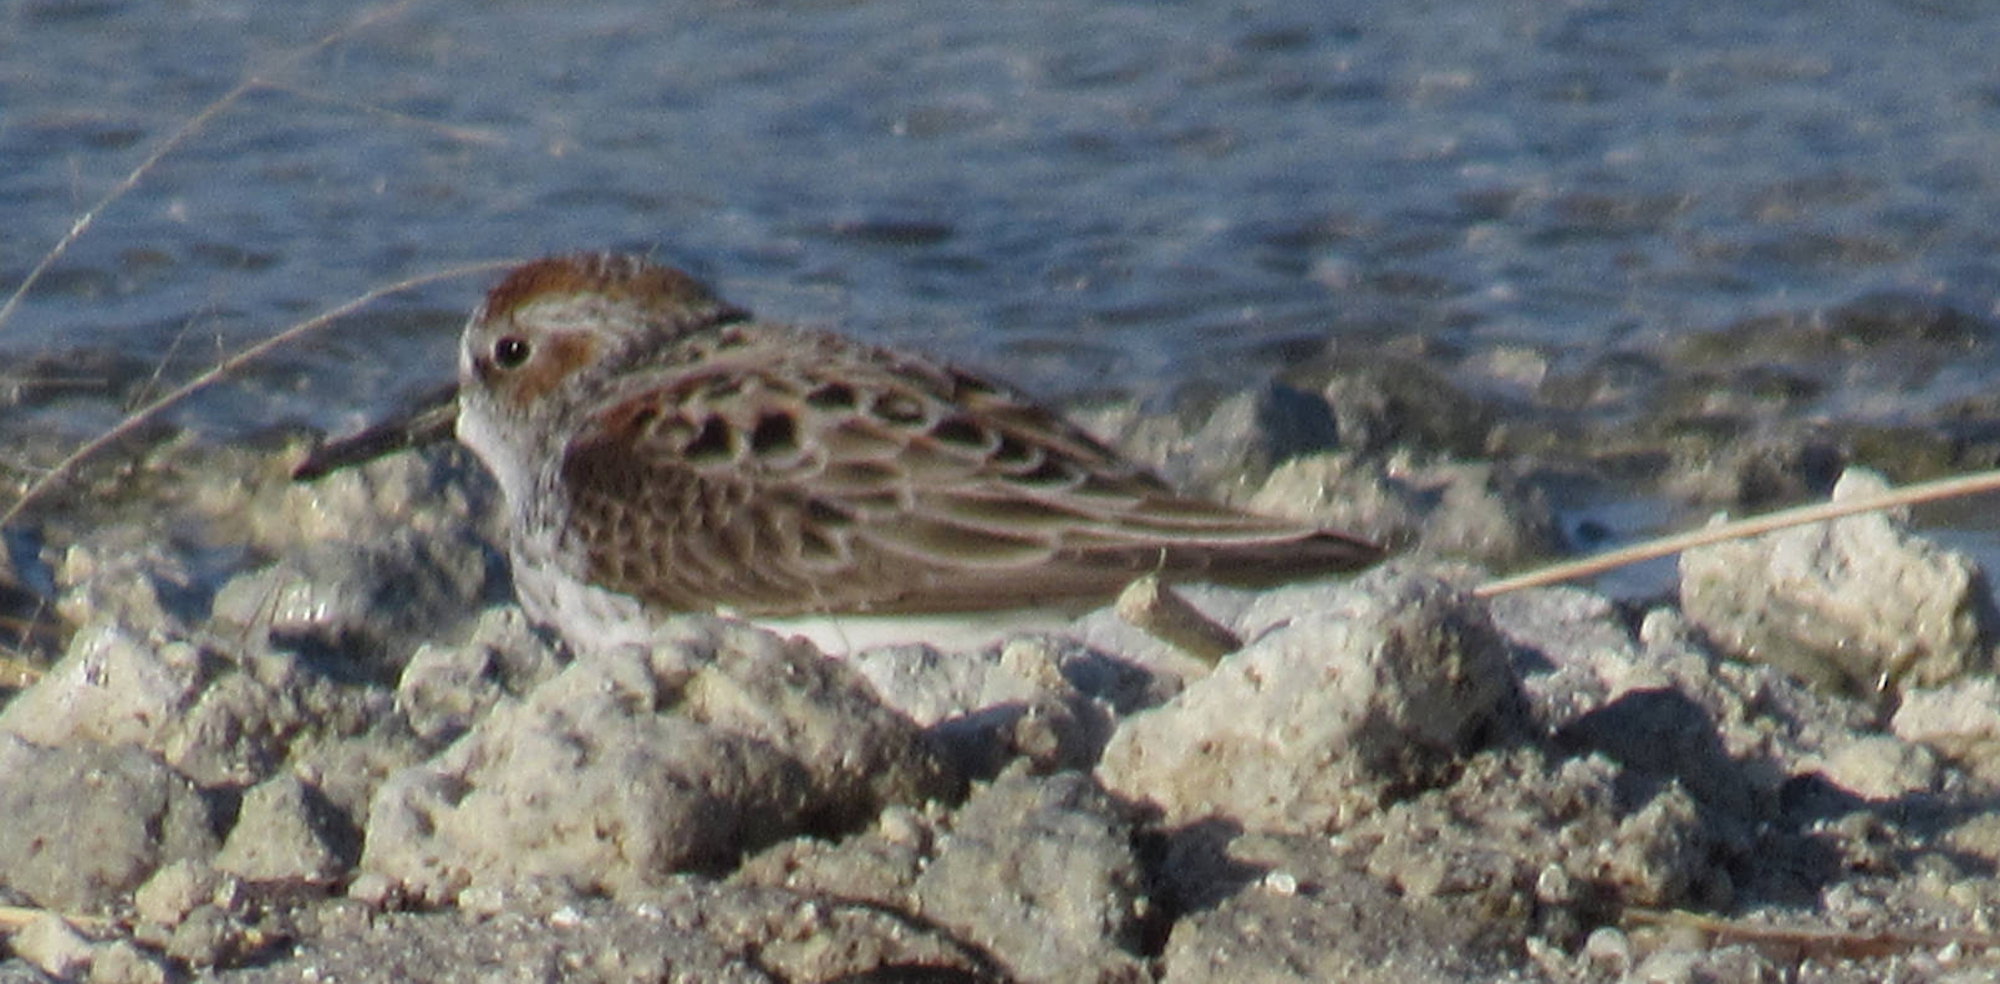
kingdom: Animalia
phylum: Chordata
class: Aves
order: Charadriiformes
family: Scolopacidae
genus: Calidris
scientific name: Calidris mauri
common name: Western sandpiper
